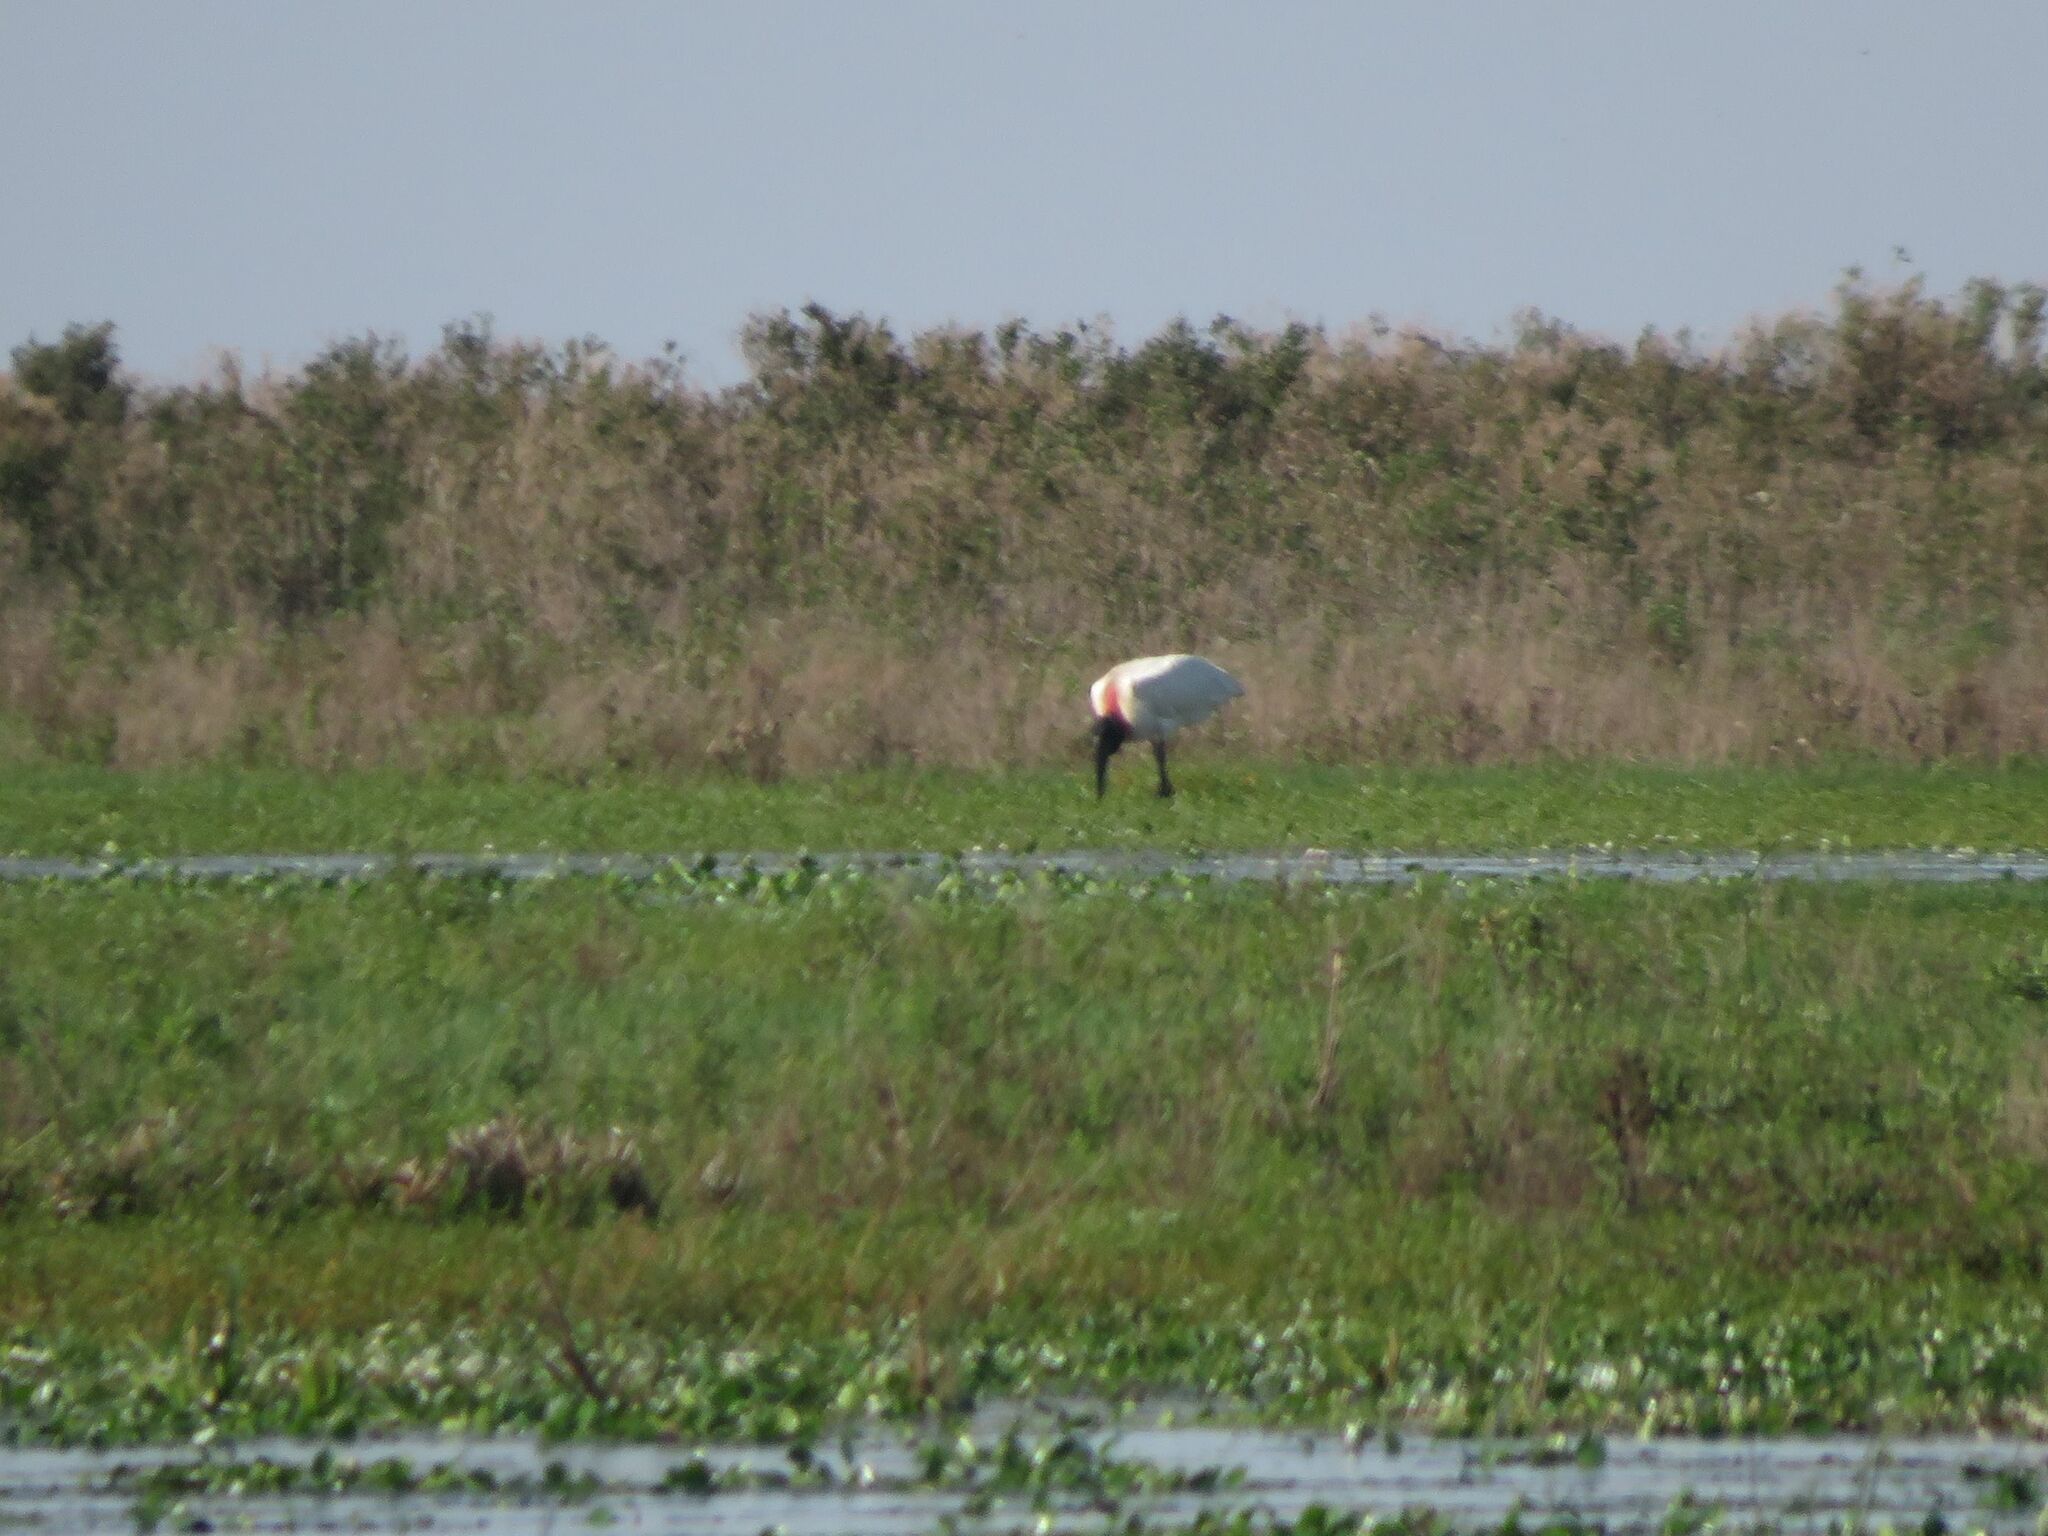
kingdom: Animalia
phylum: Chordata
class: Aves
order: Ciconiiformes
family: Ciconiidae
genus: Jabiru
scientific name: Jabiru mycteria
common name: Jabiru
